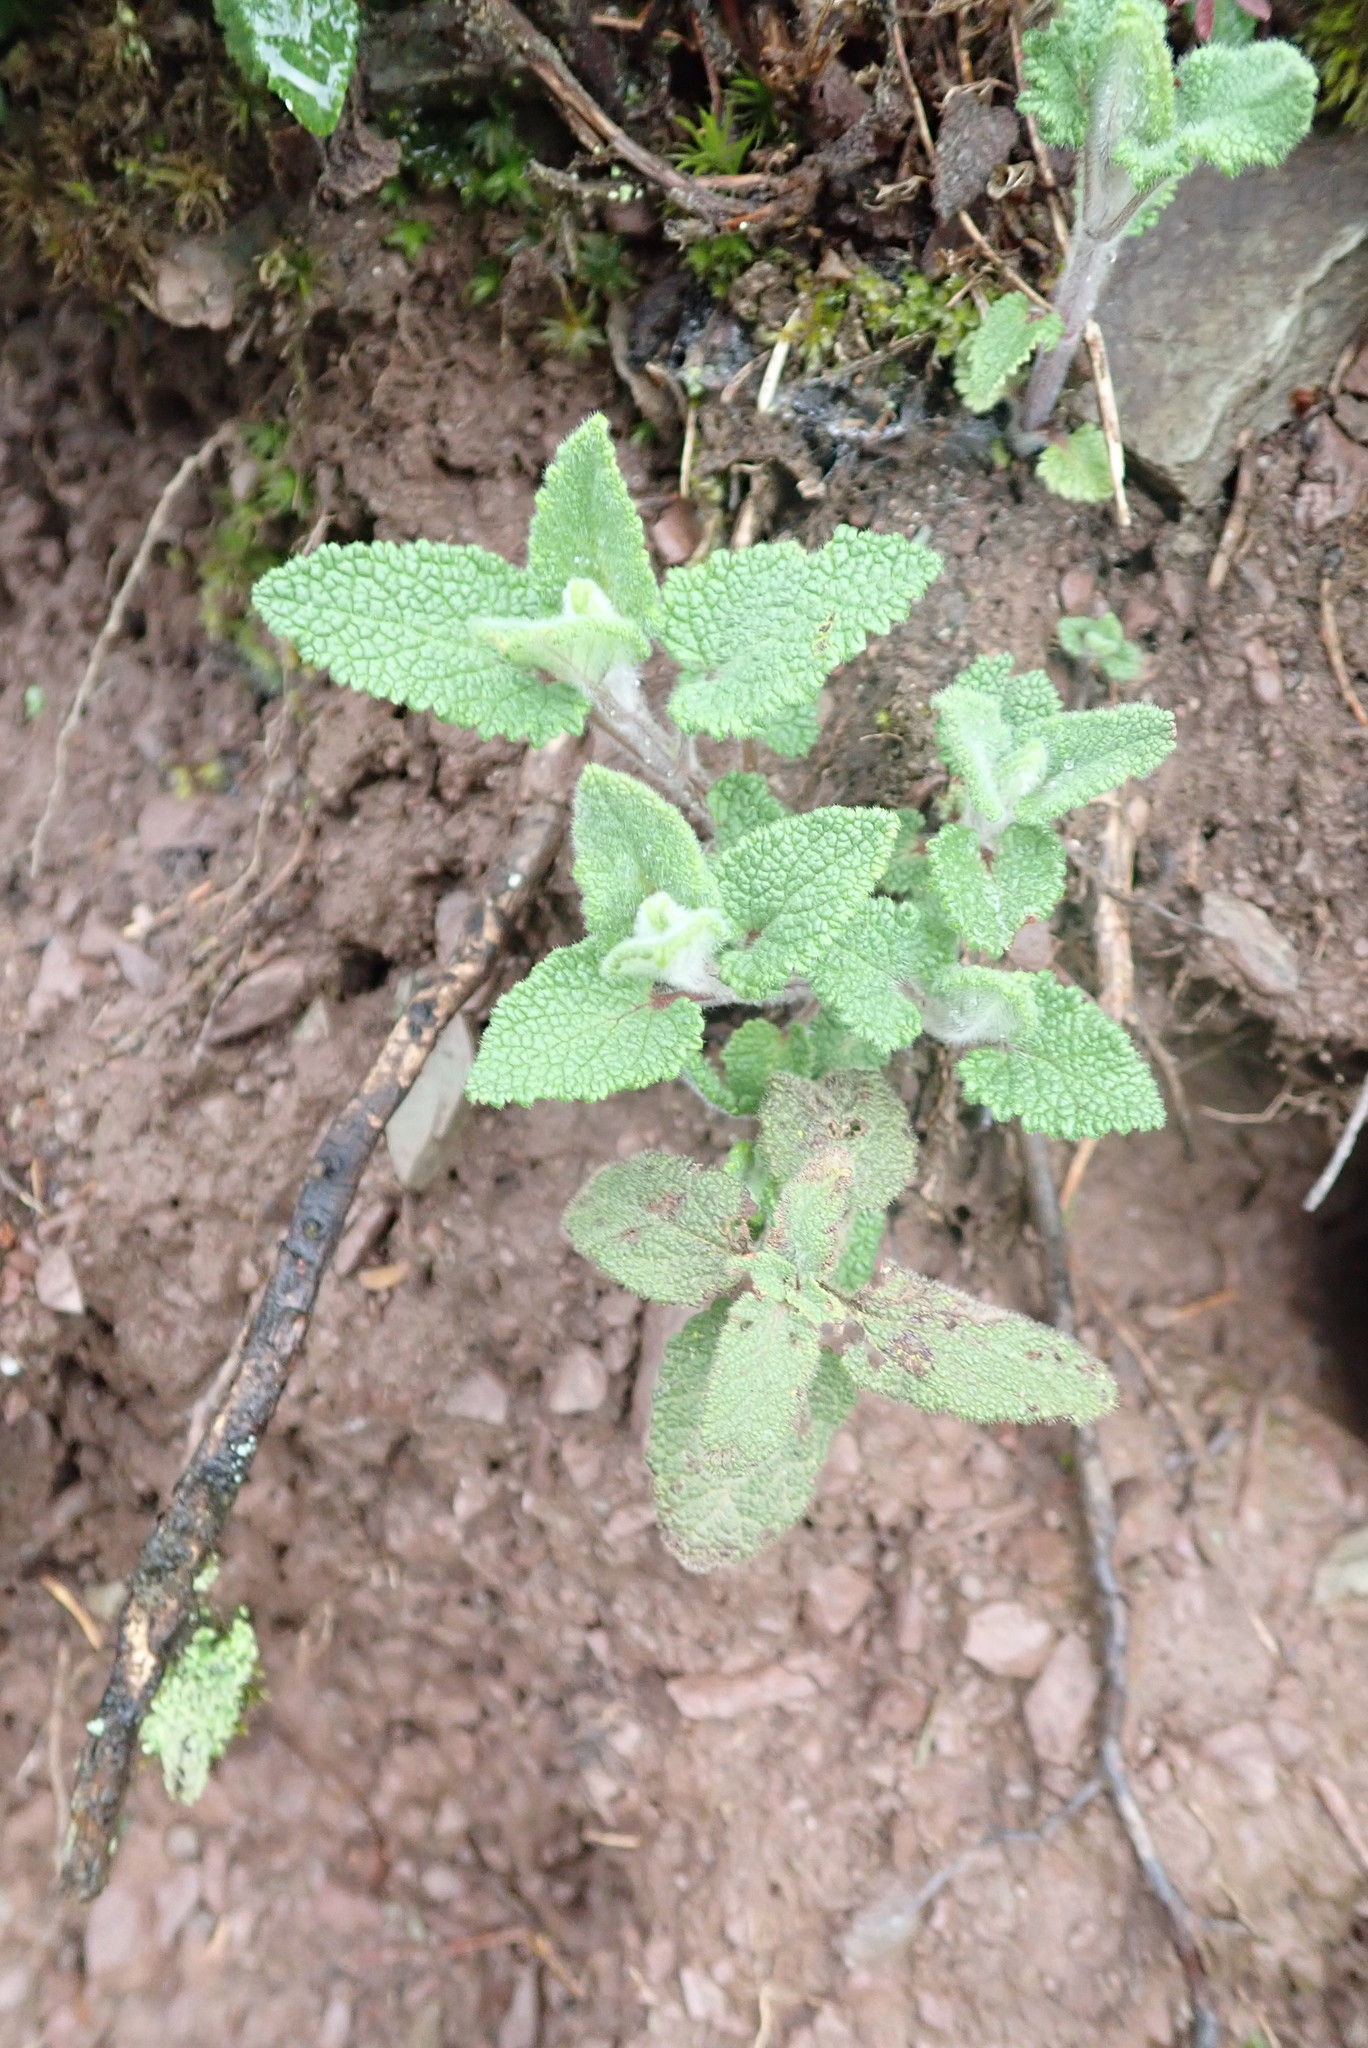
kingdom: Plantae
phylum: Tracheophyta
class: Magnoliopsida
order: Lamiales
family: Lamiaceae
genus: Teucrium
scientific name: Teucrium scorodonia
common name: Woodland germander
